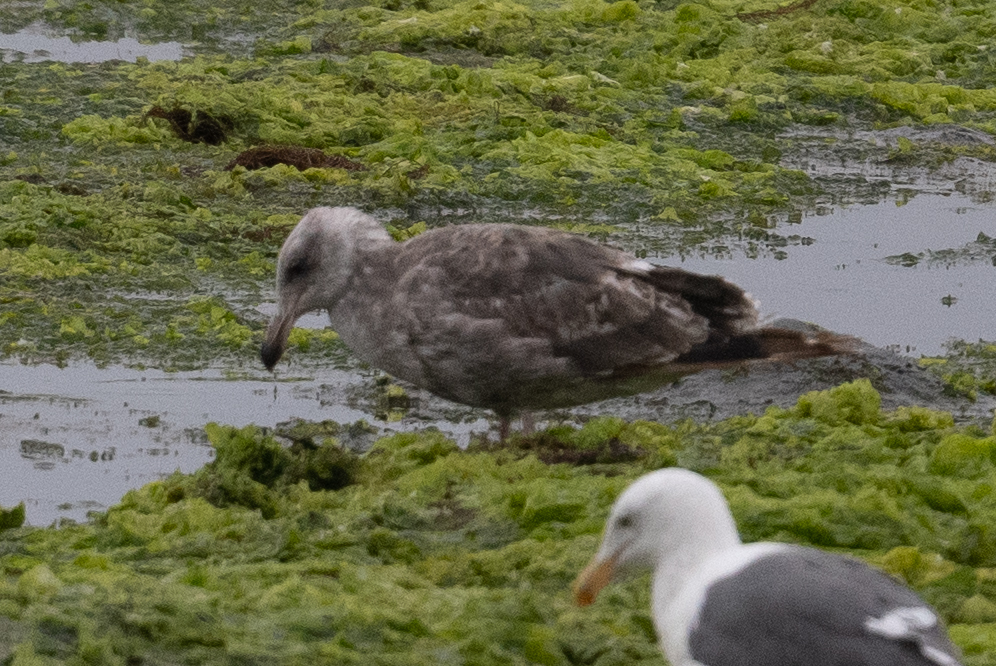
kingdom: Animalia
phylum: Chordata
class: Aves
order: Charadriiformes
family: Laridae
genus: Larus
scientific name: Larus occidentalis
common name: Western gull
